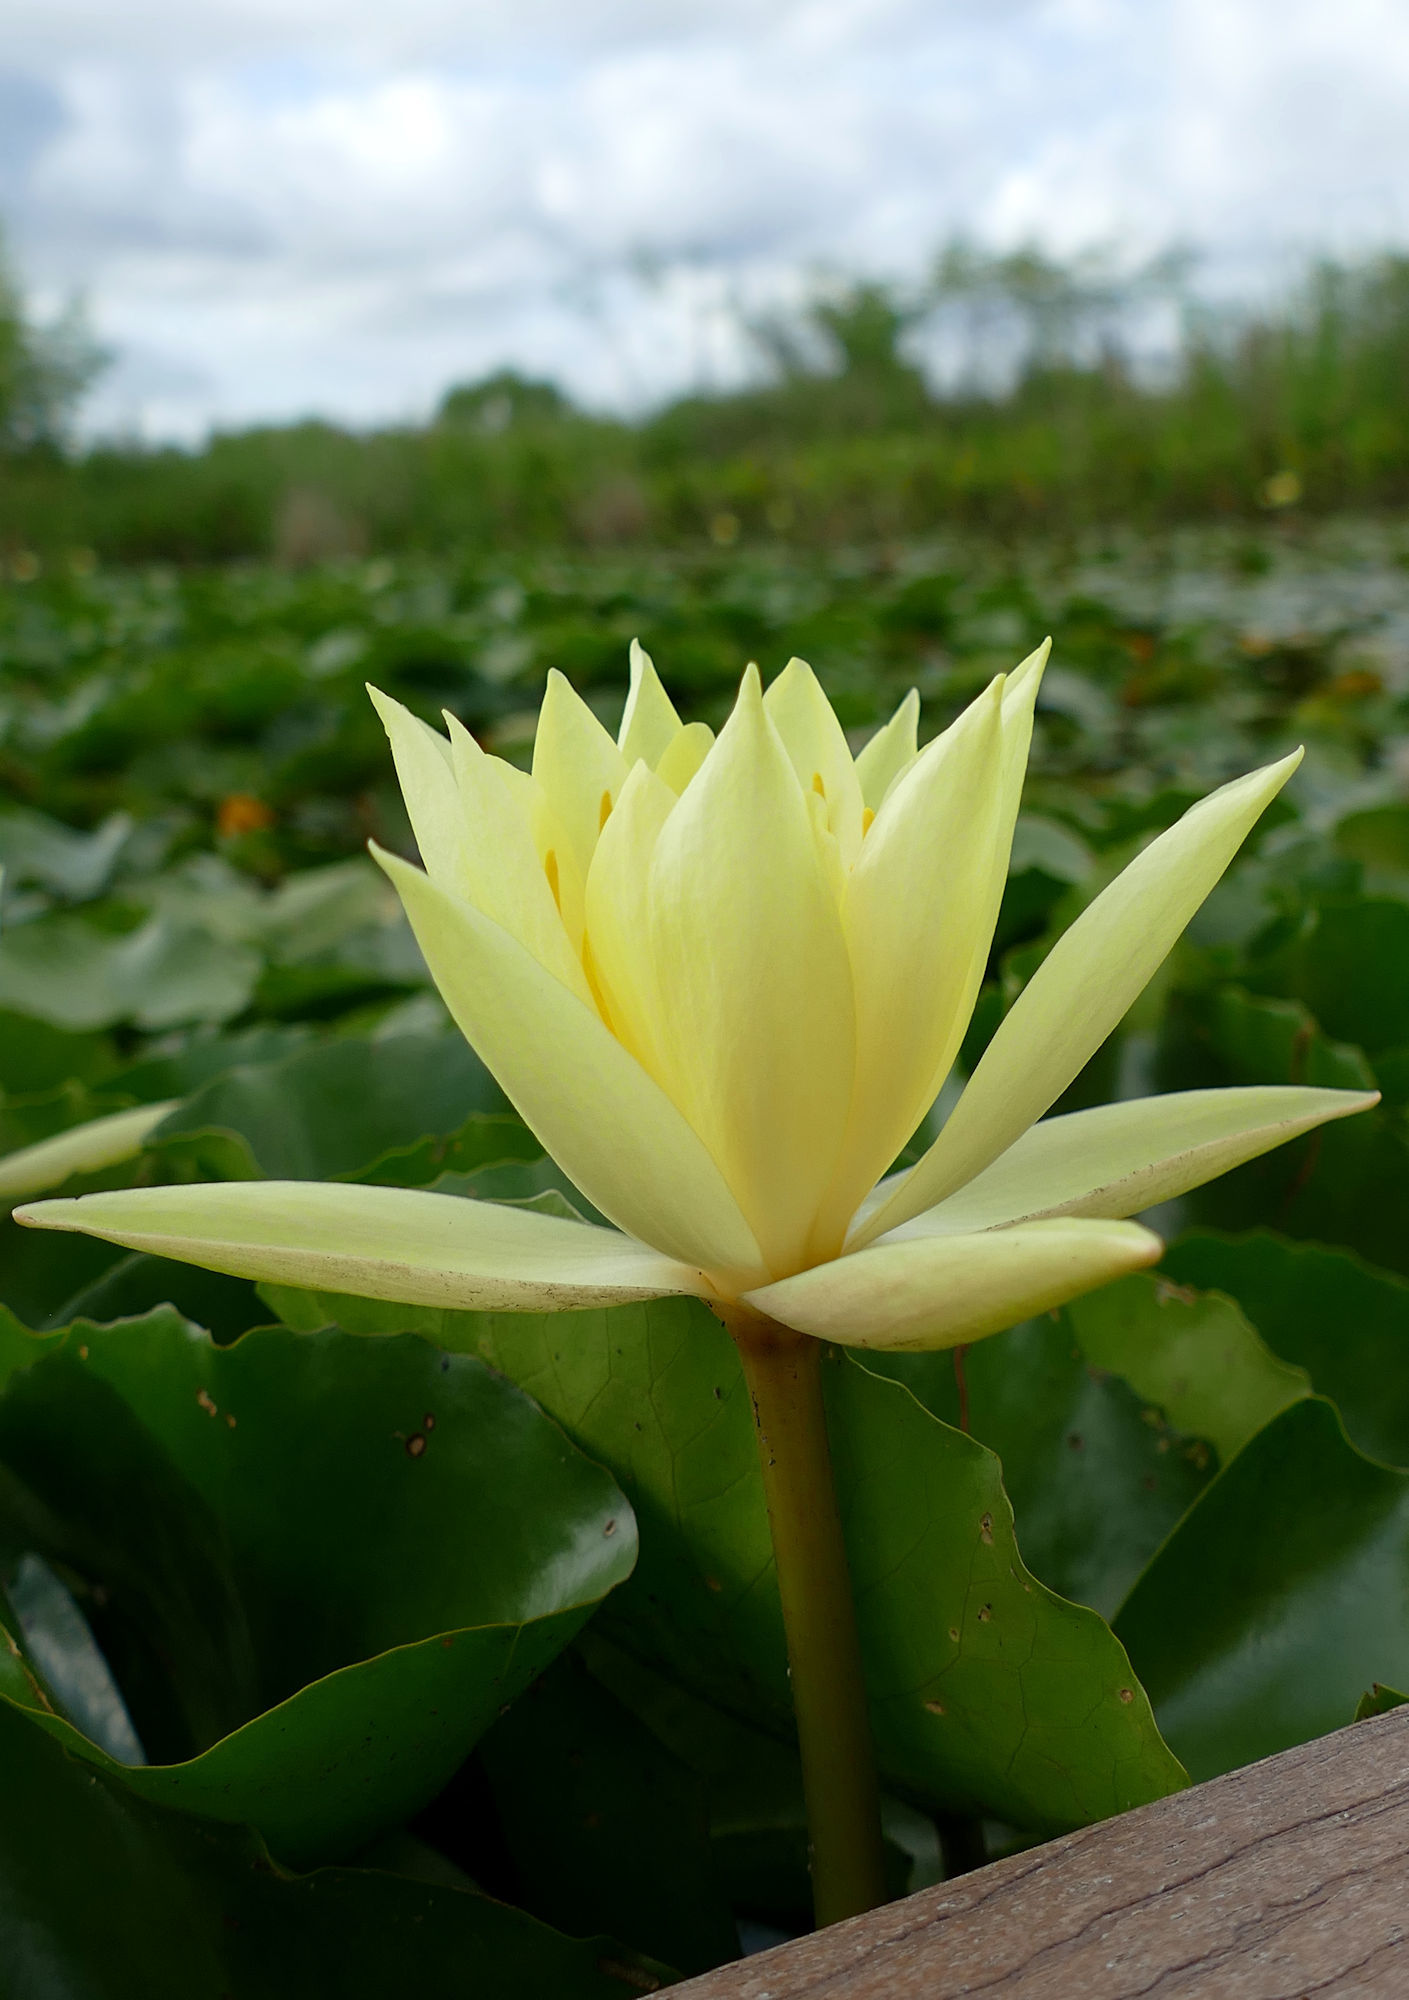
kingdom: Plantae
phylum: Tracheophyta
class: Magnoliopsida
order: Nymphaeales
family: Nymphaeaceae
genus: Nymphaea
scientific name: Nymphaea mexicana
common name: Banana water-lily
